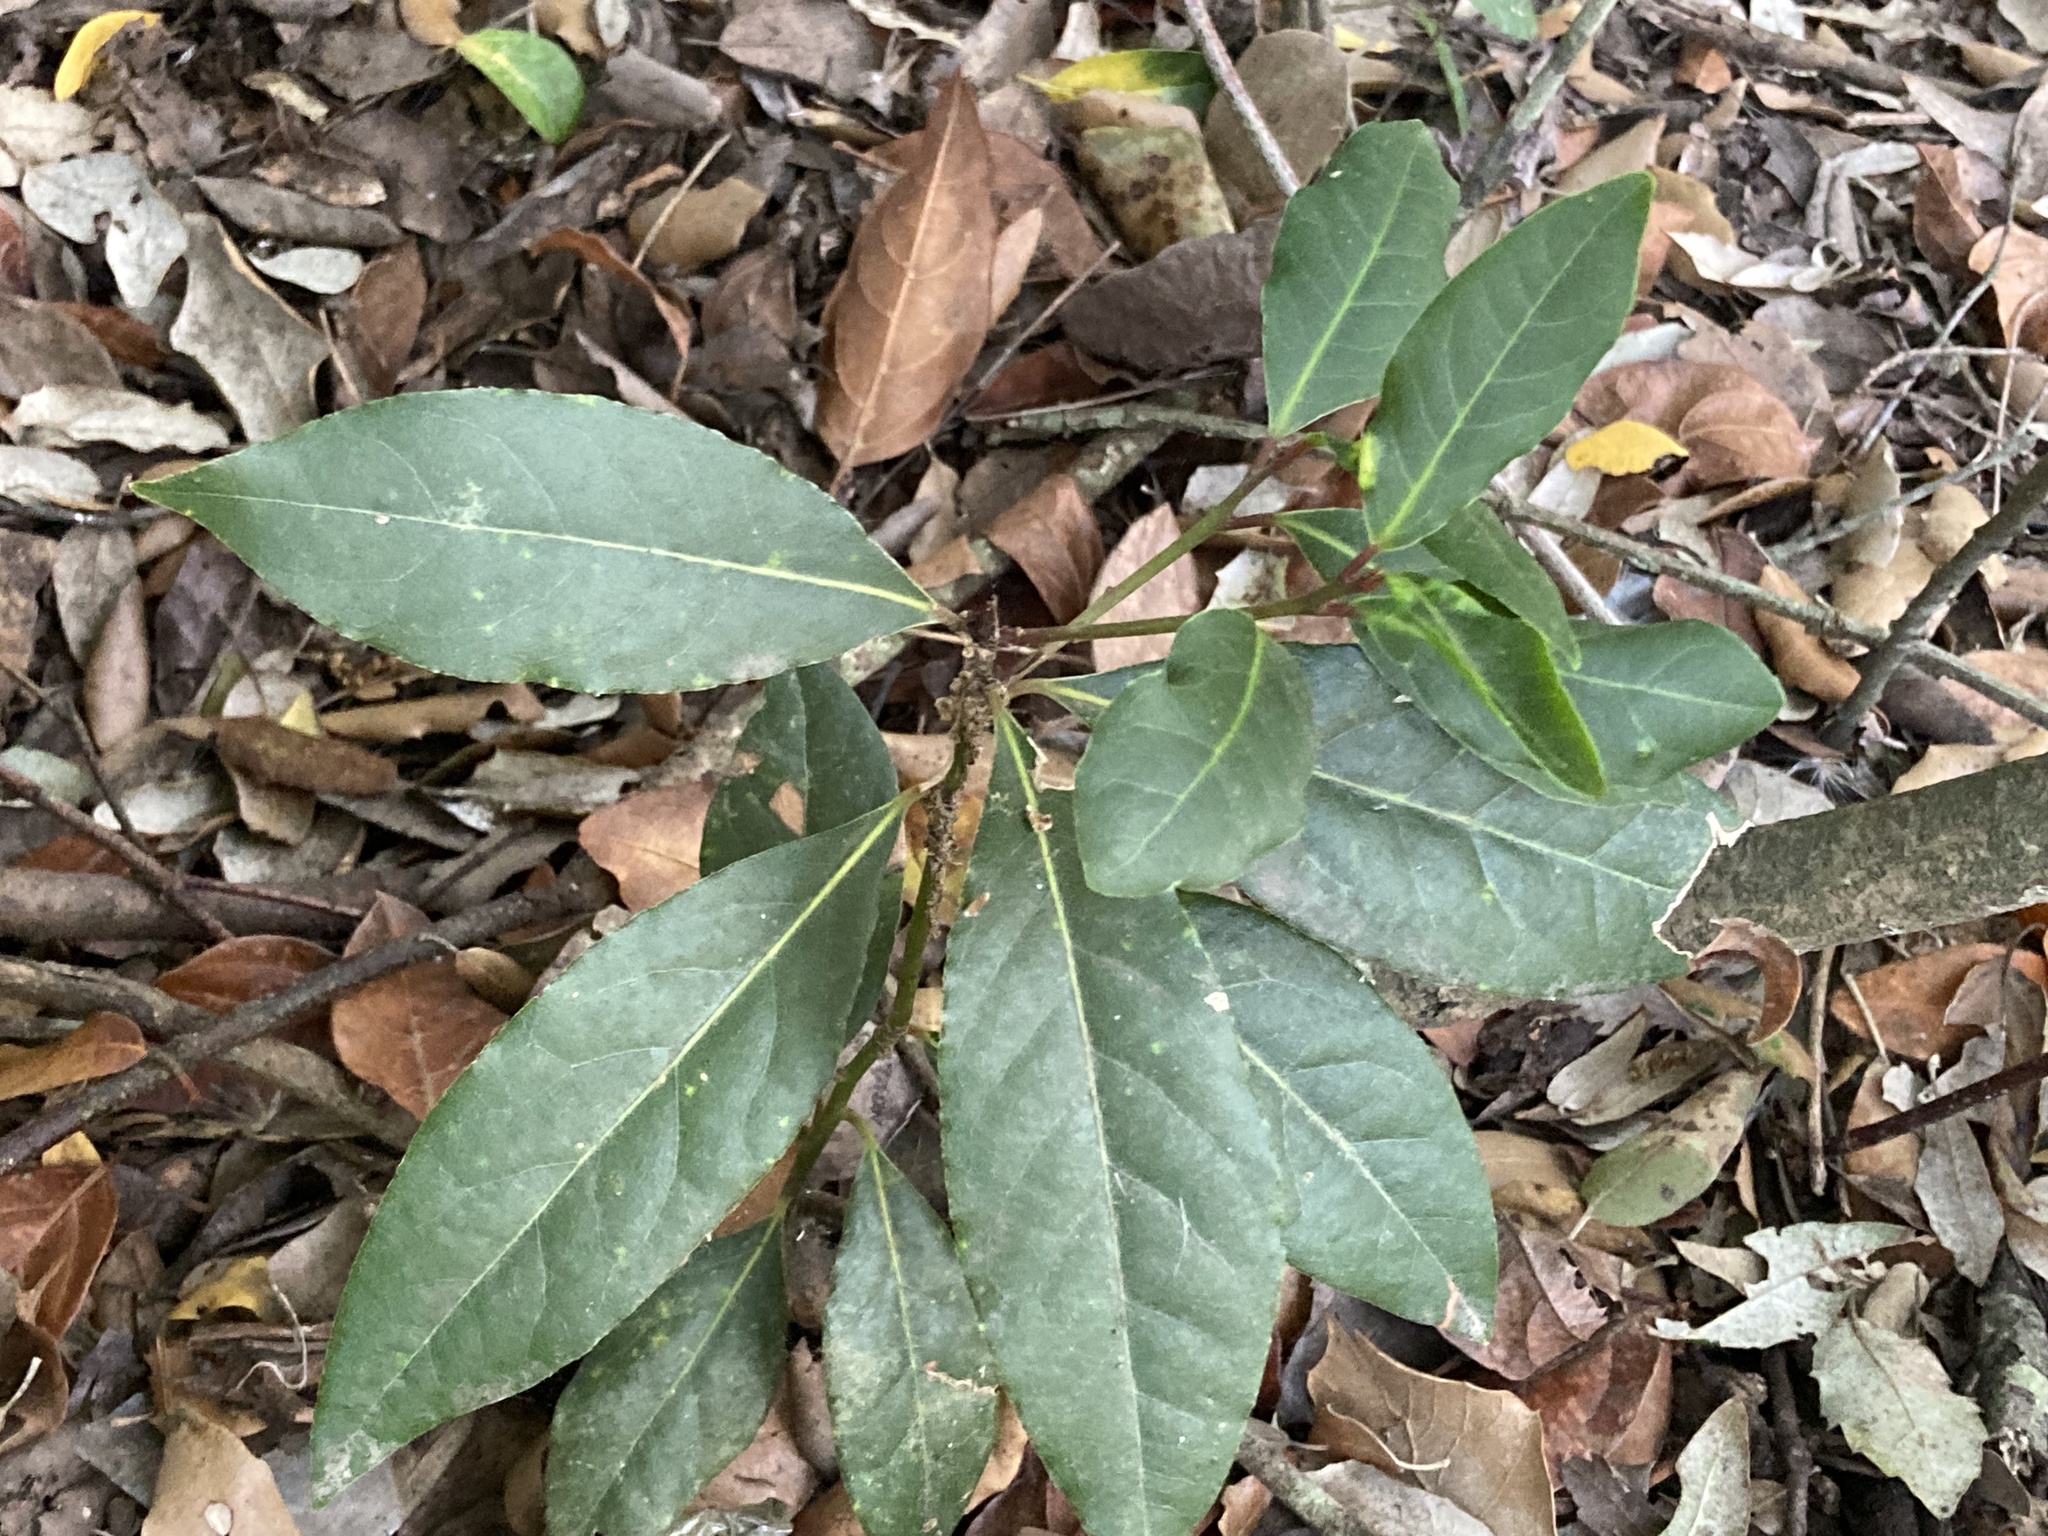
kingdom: Plantae
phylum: Tracheophyta
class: Magnoliopsida
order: Laurales
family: Lauraceae
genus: Laurus
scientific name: Laurus nobilis
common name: Bay
